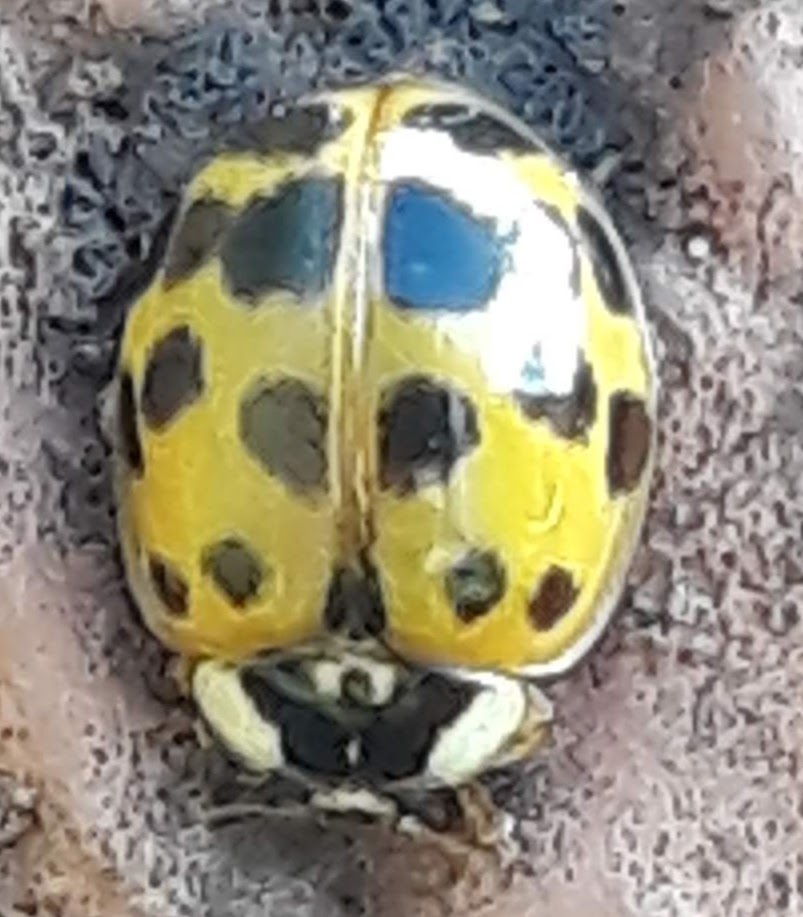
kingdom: Animalia
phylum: Arthropoda
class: Insecta
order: Coleoptera
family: Coccinellidae
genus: Harmonia
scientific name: Harmonia axyridis
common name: Harlequin ladybird
